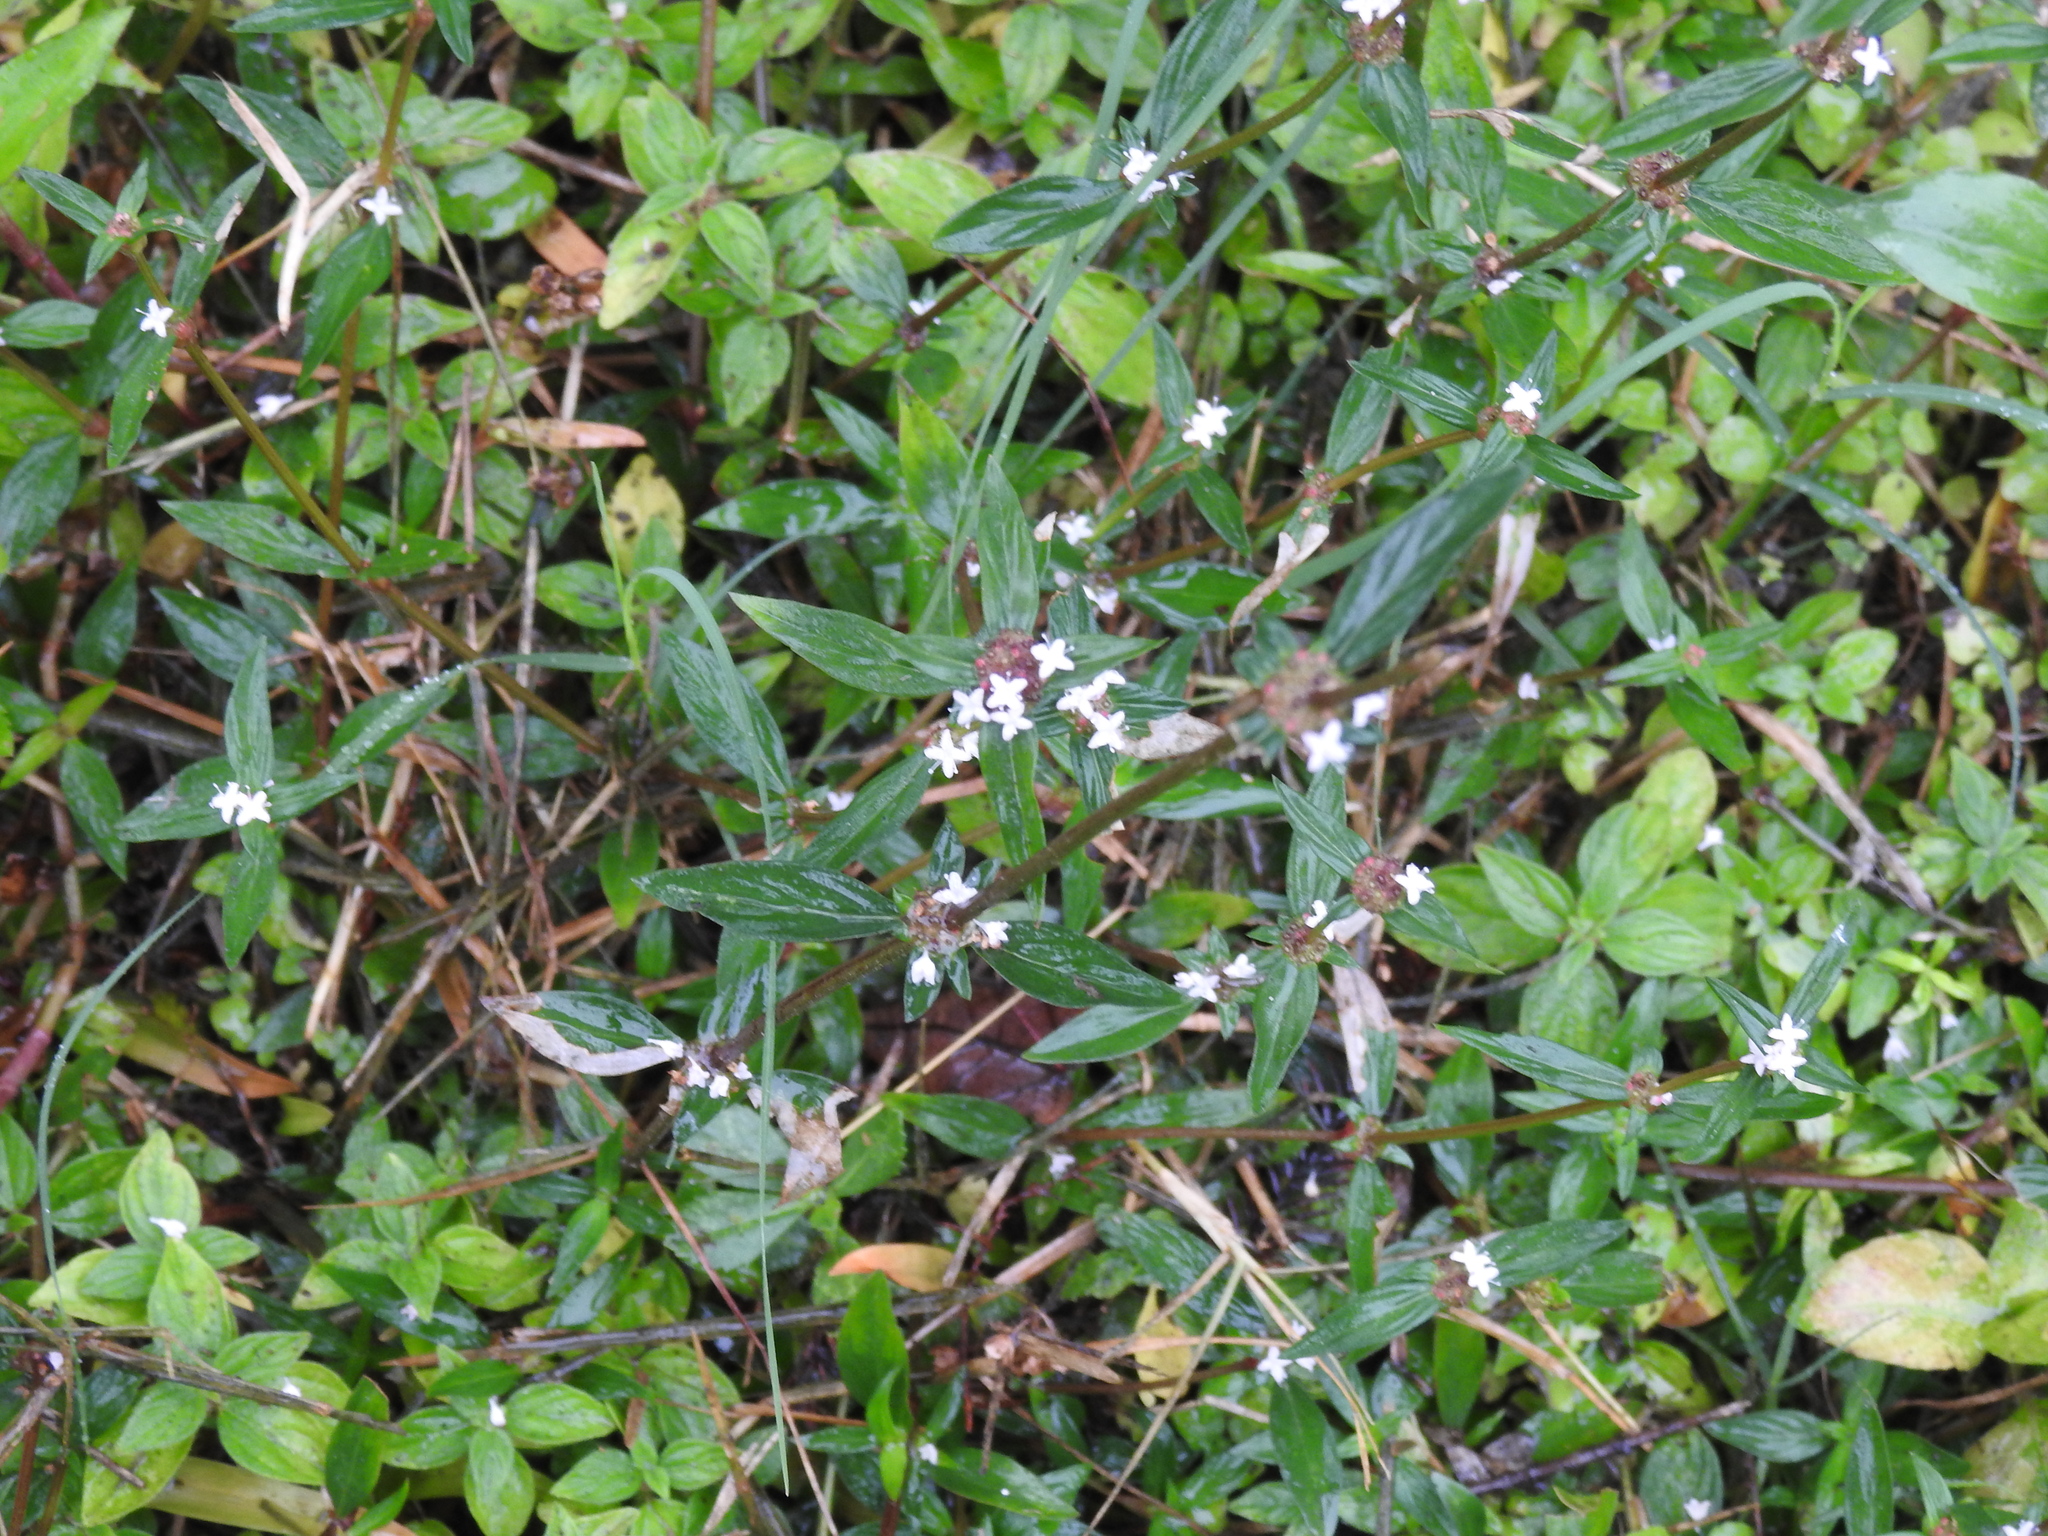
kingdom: Plantae
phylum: Tracheophyta
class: Magnoliopsida
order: Gentianales
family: Rubiaceae
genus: Spermacoce
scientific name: Spermacoce remota
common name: Woodland false buttonweed
